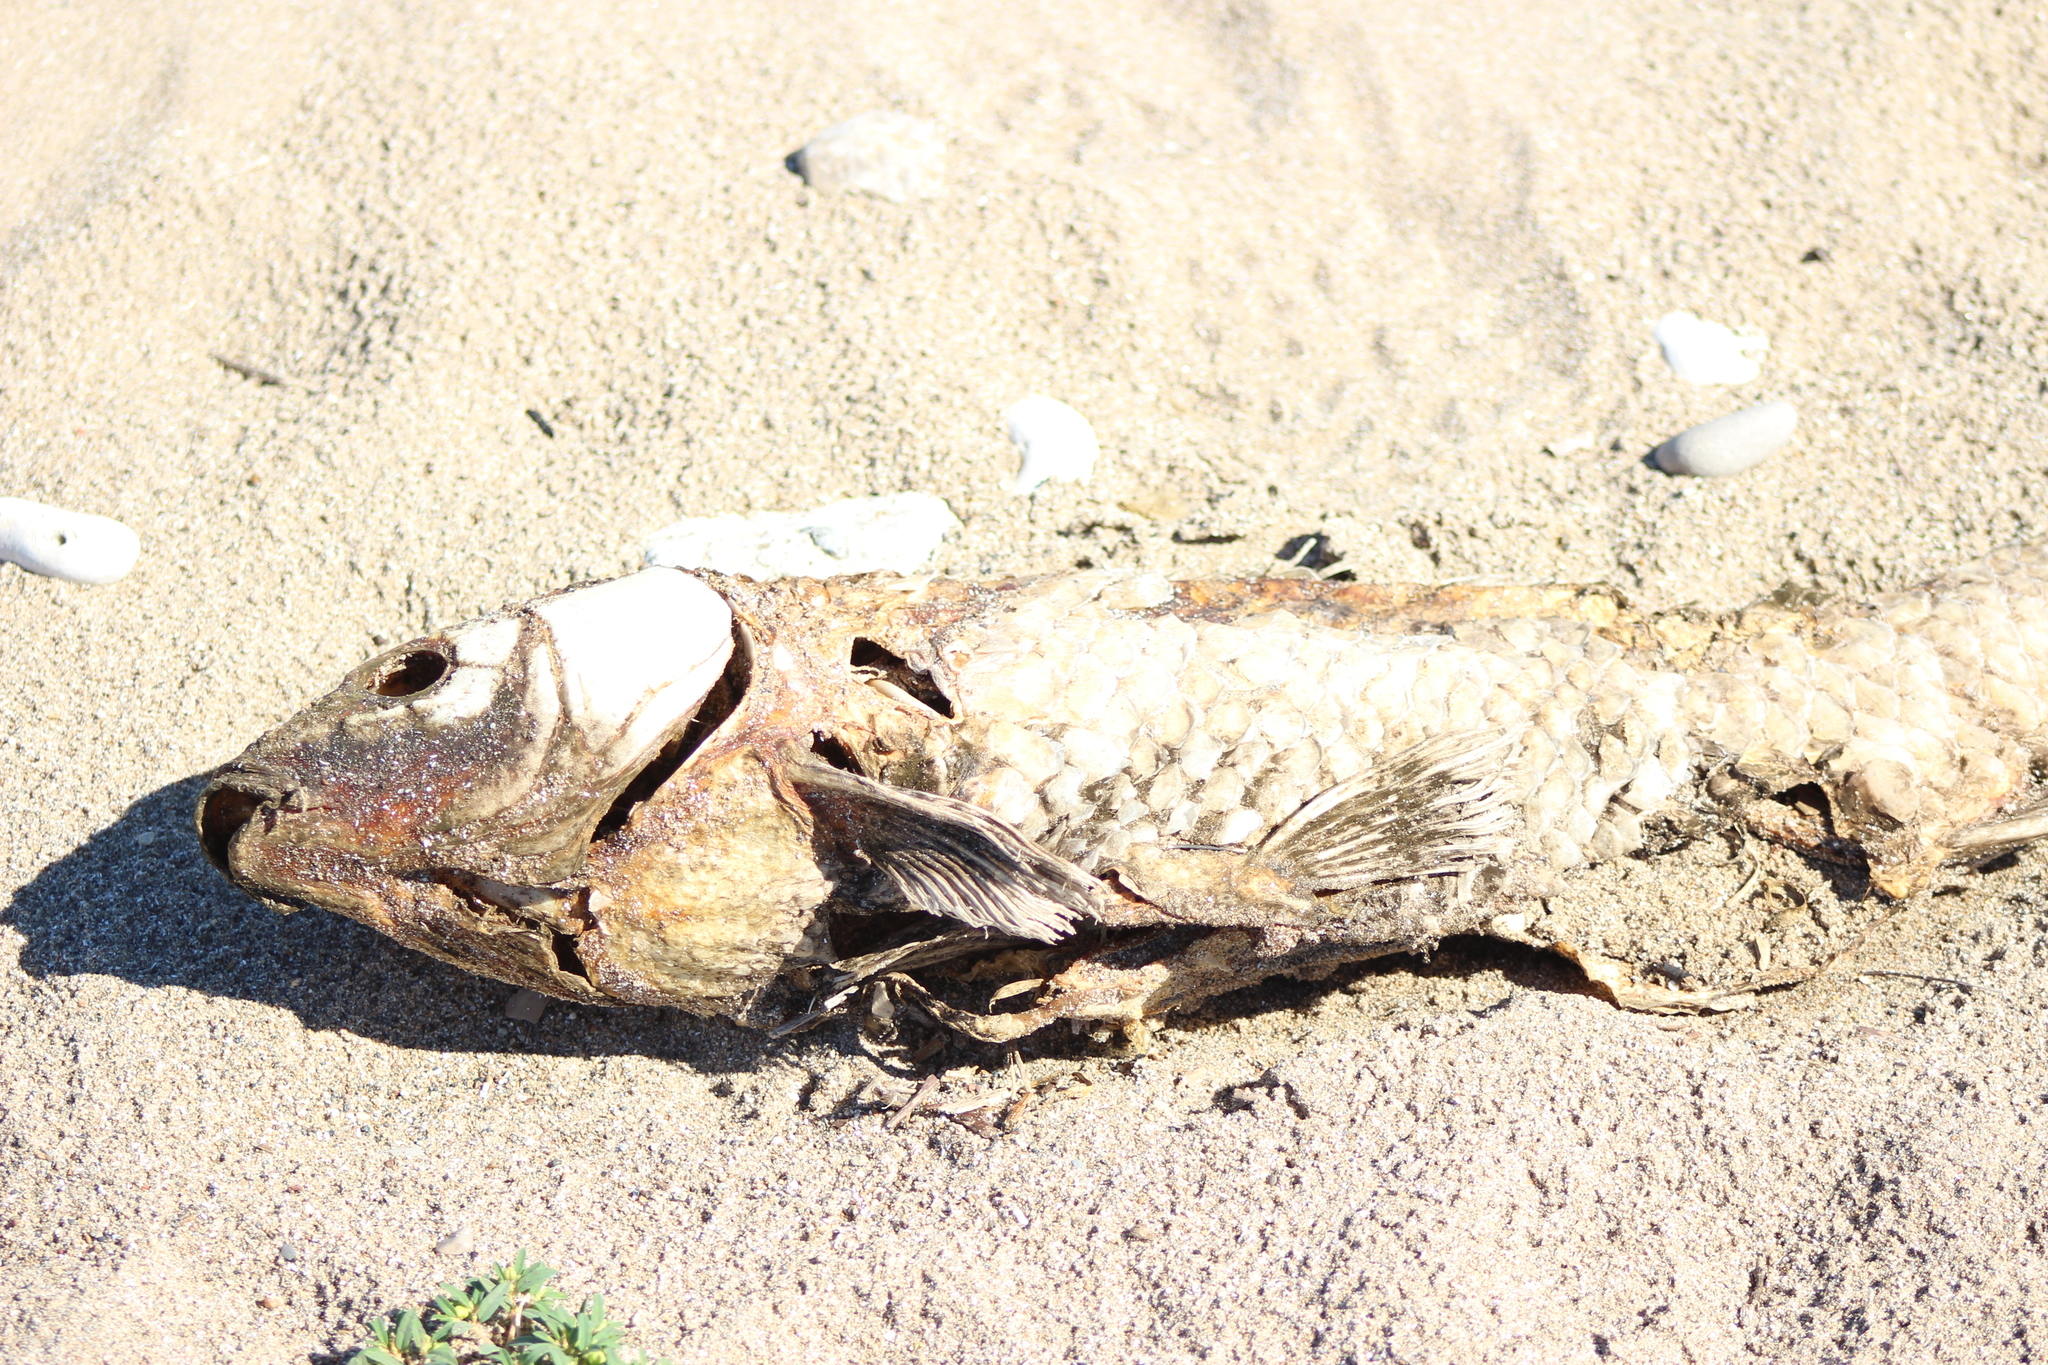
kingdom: Animalia
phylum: Chordata
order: Cypriniformes
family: Cyprinidae
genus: Cyprinus
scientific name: Cyprinus carpio
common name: Common carp
